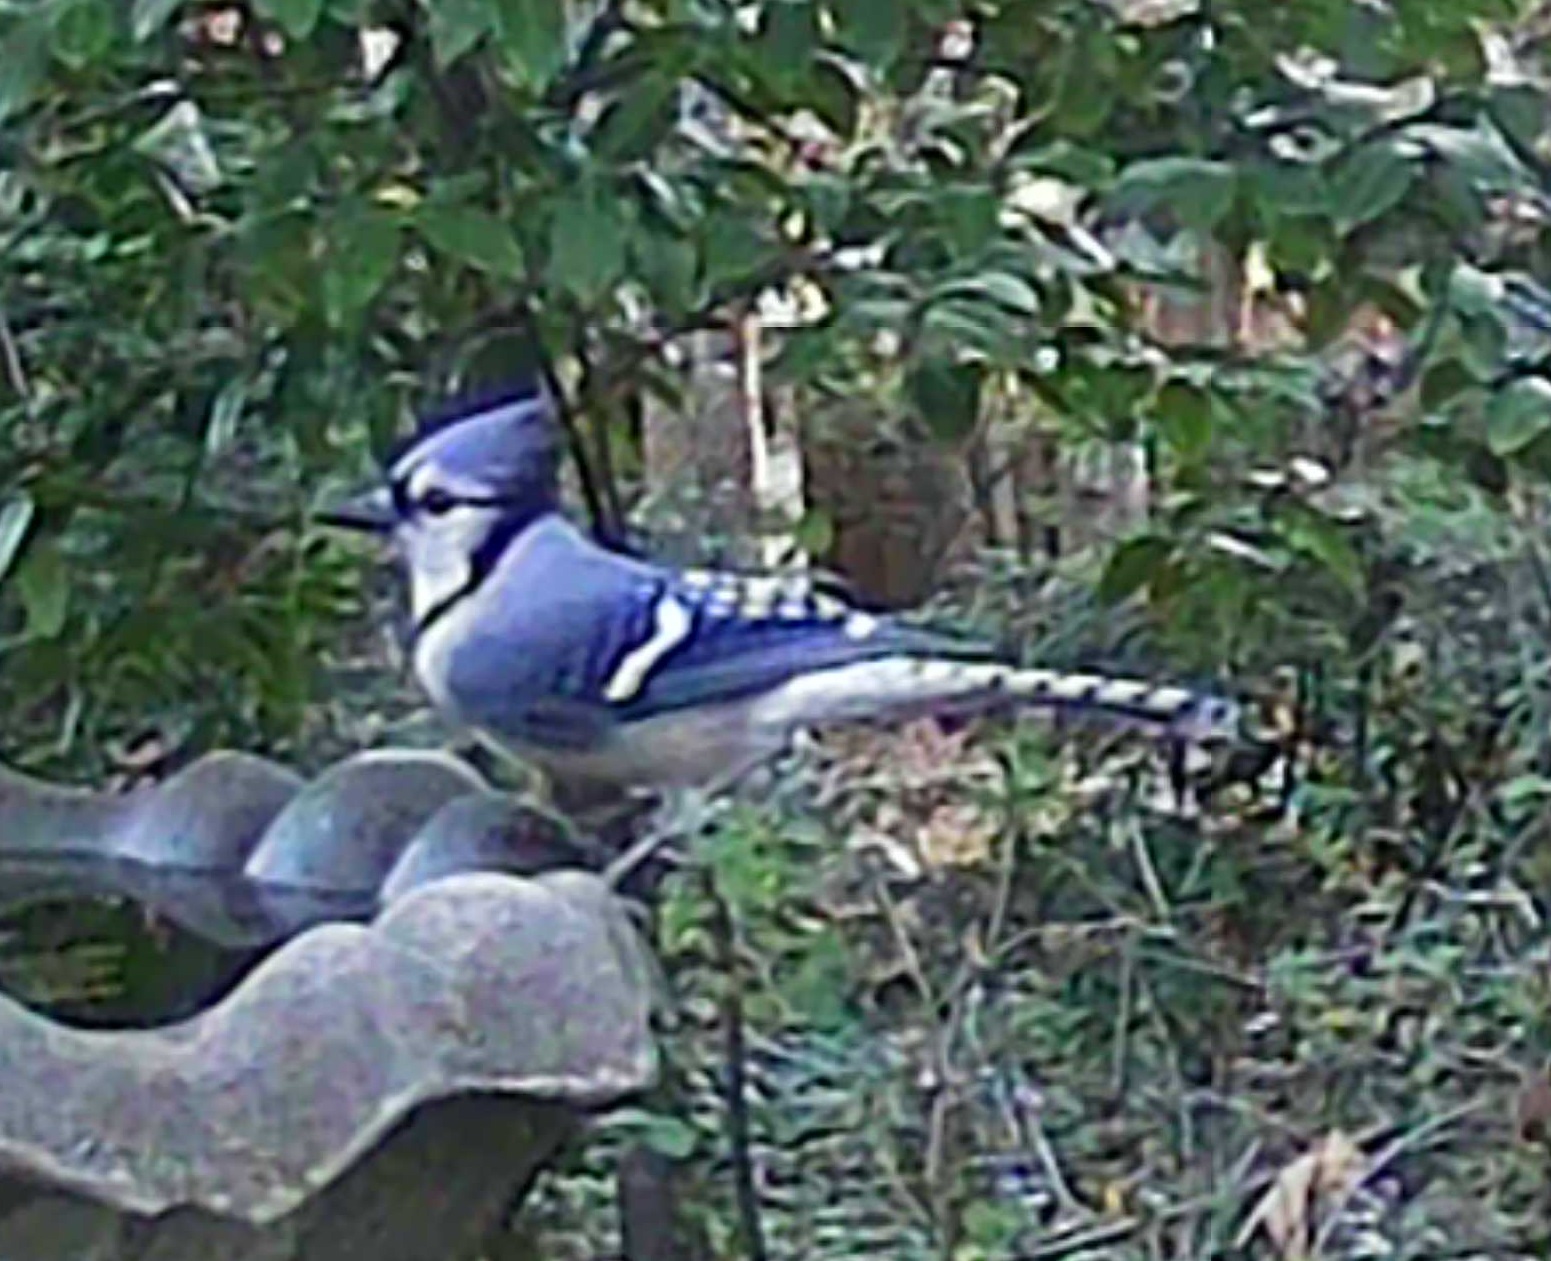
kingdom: Animalia
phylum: Chordata
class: Aves
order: Passeriformes
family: Corvidae
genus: Cyanocitta
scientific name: Cyanocitta cristata
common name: Blue jay
